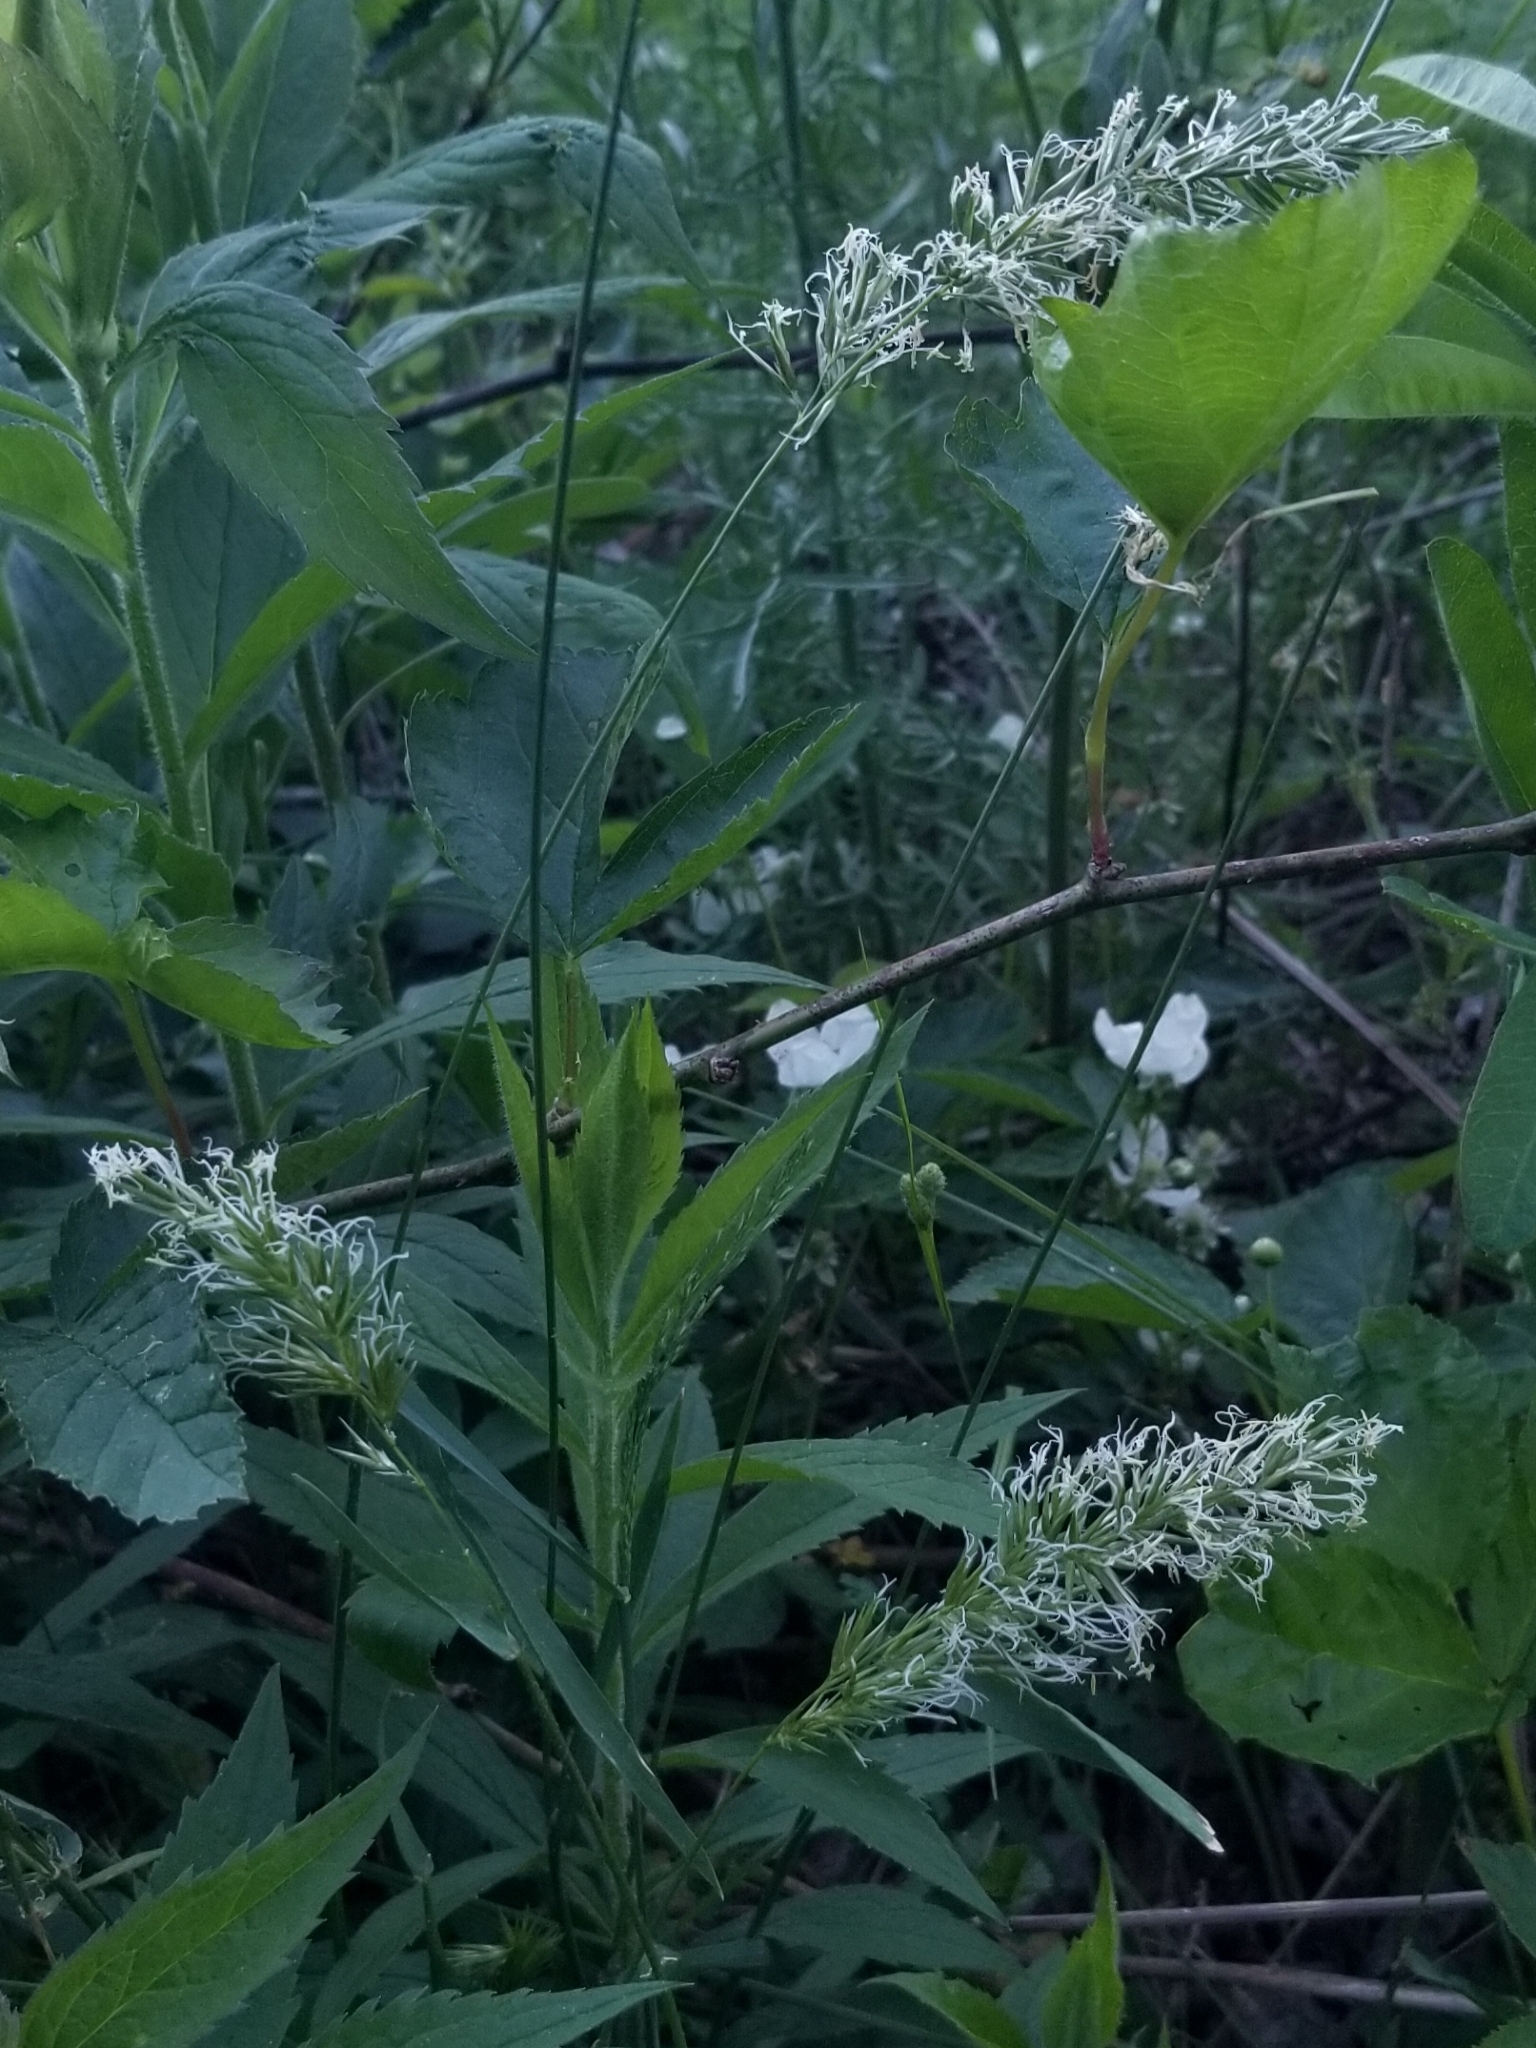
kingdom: Plantae
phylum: Tracheophyta
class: Liliopsida
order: Poales
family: Poaceae
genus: Anthoxanthum
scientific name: Anthoxanthum odoratum
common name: Sweet vernalgrass
